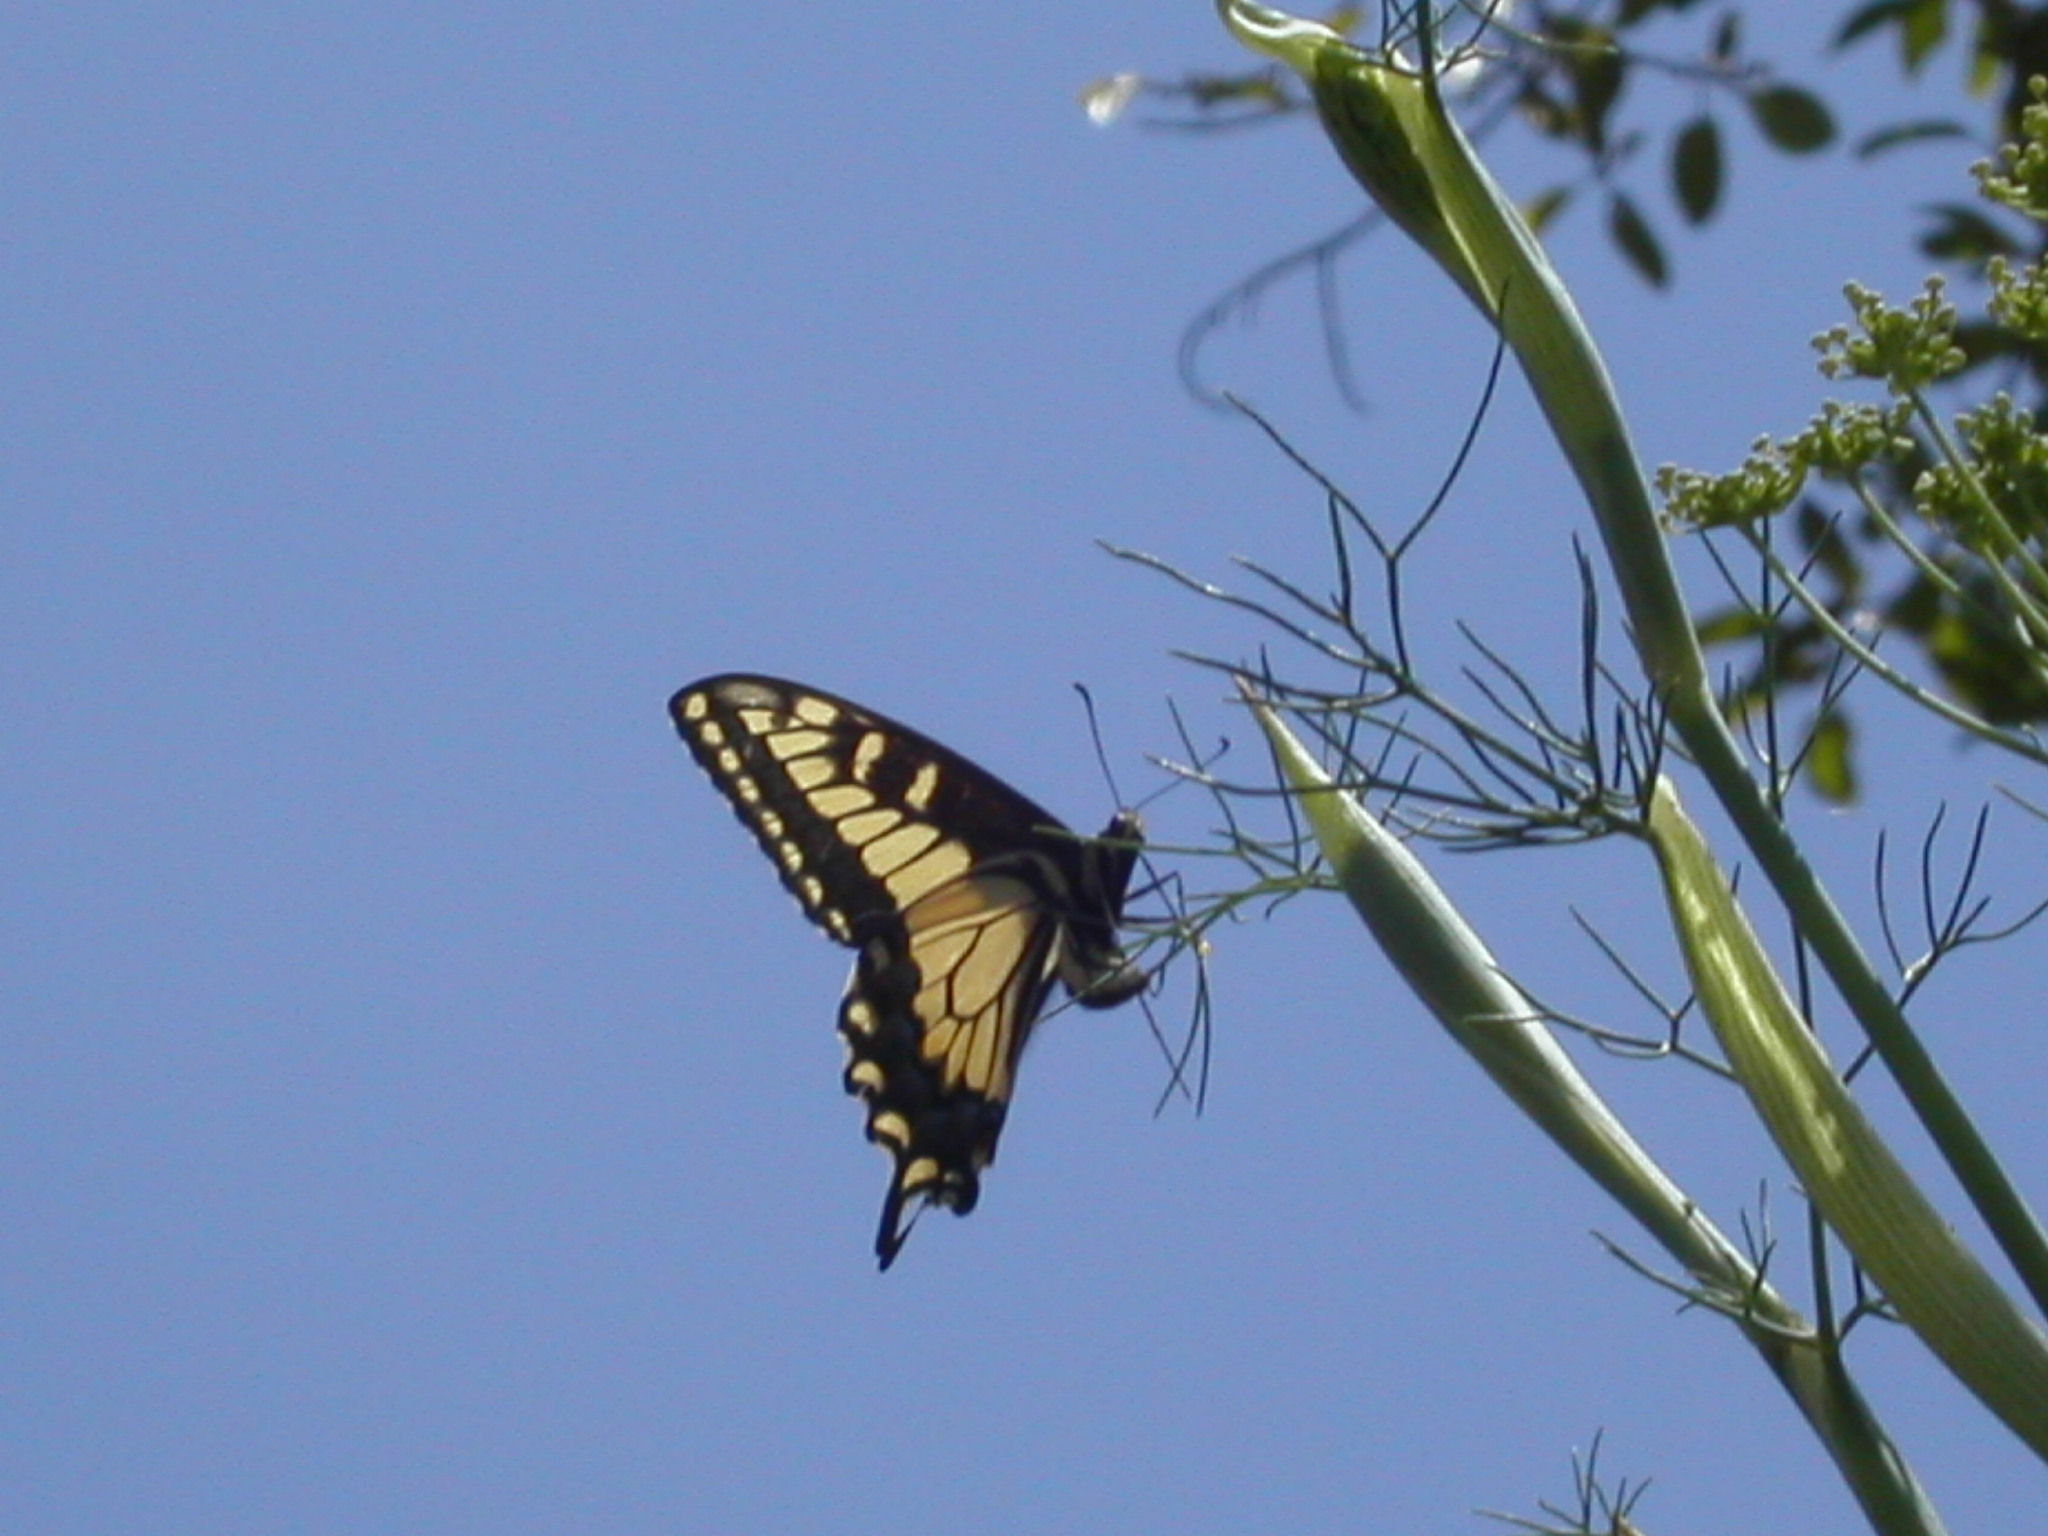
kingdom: Animalia
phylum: Arthropoda
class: Insecta
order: Lepidoptera
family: Papilionidae
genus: Papilio
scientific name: Papilio zelicaon
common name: Anise swallowtail
